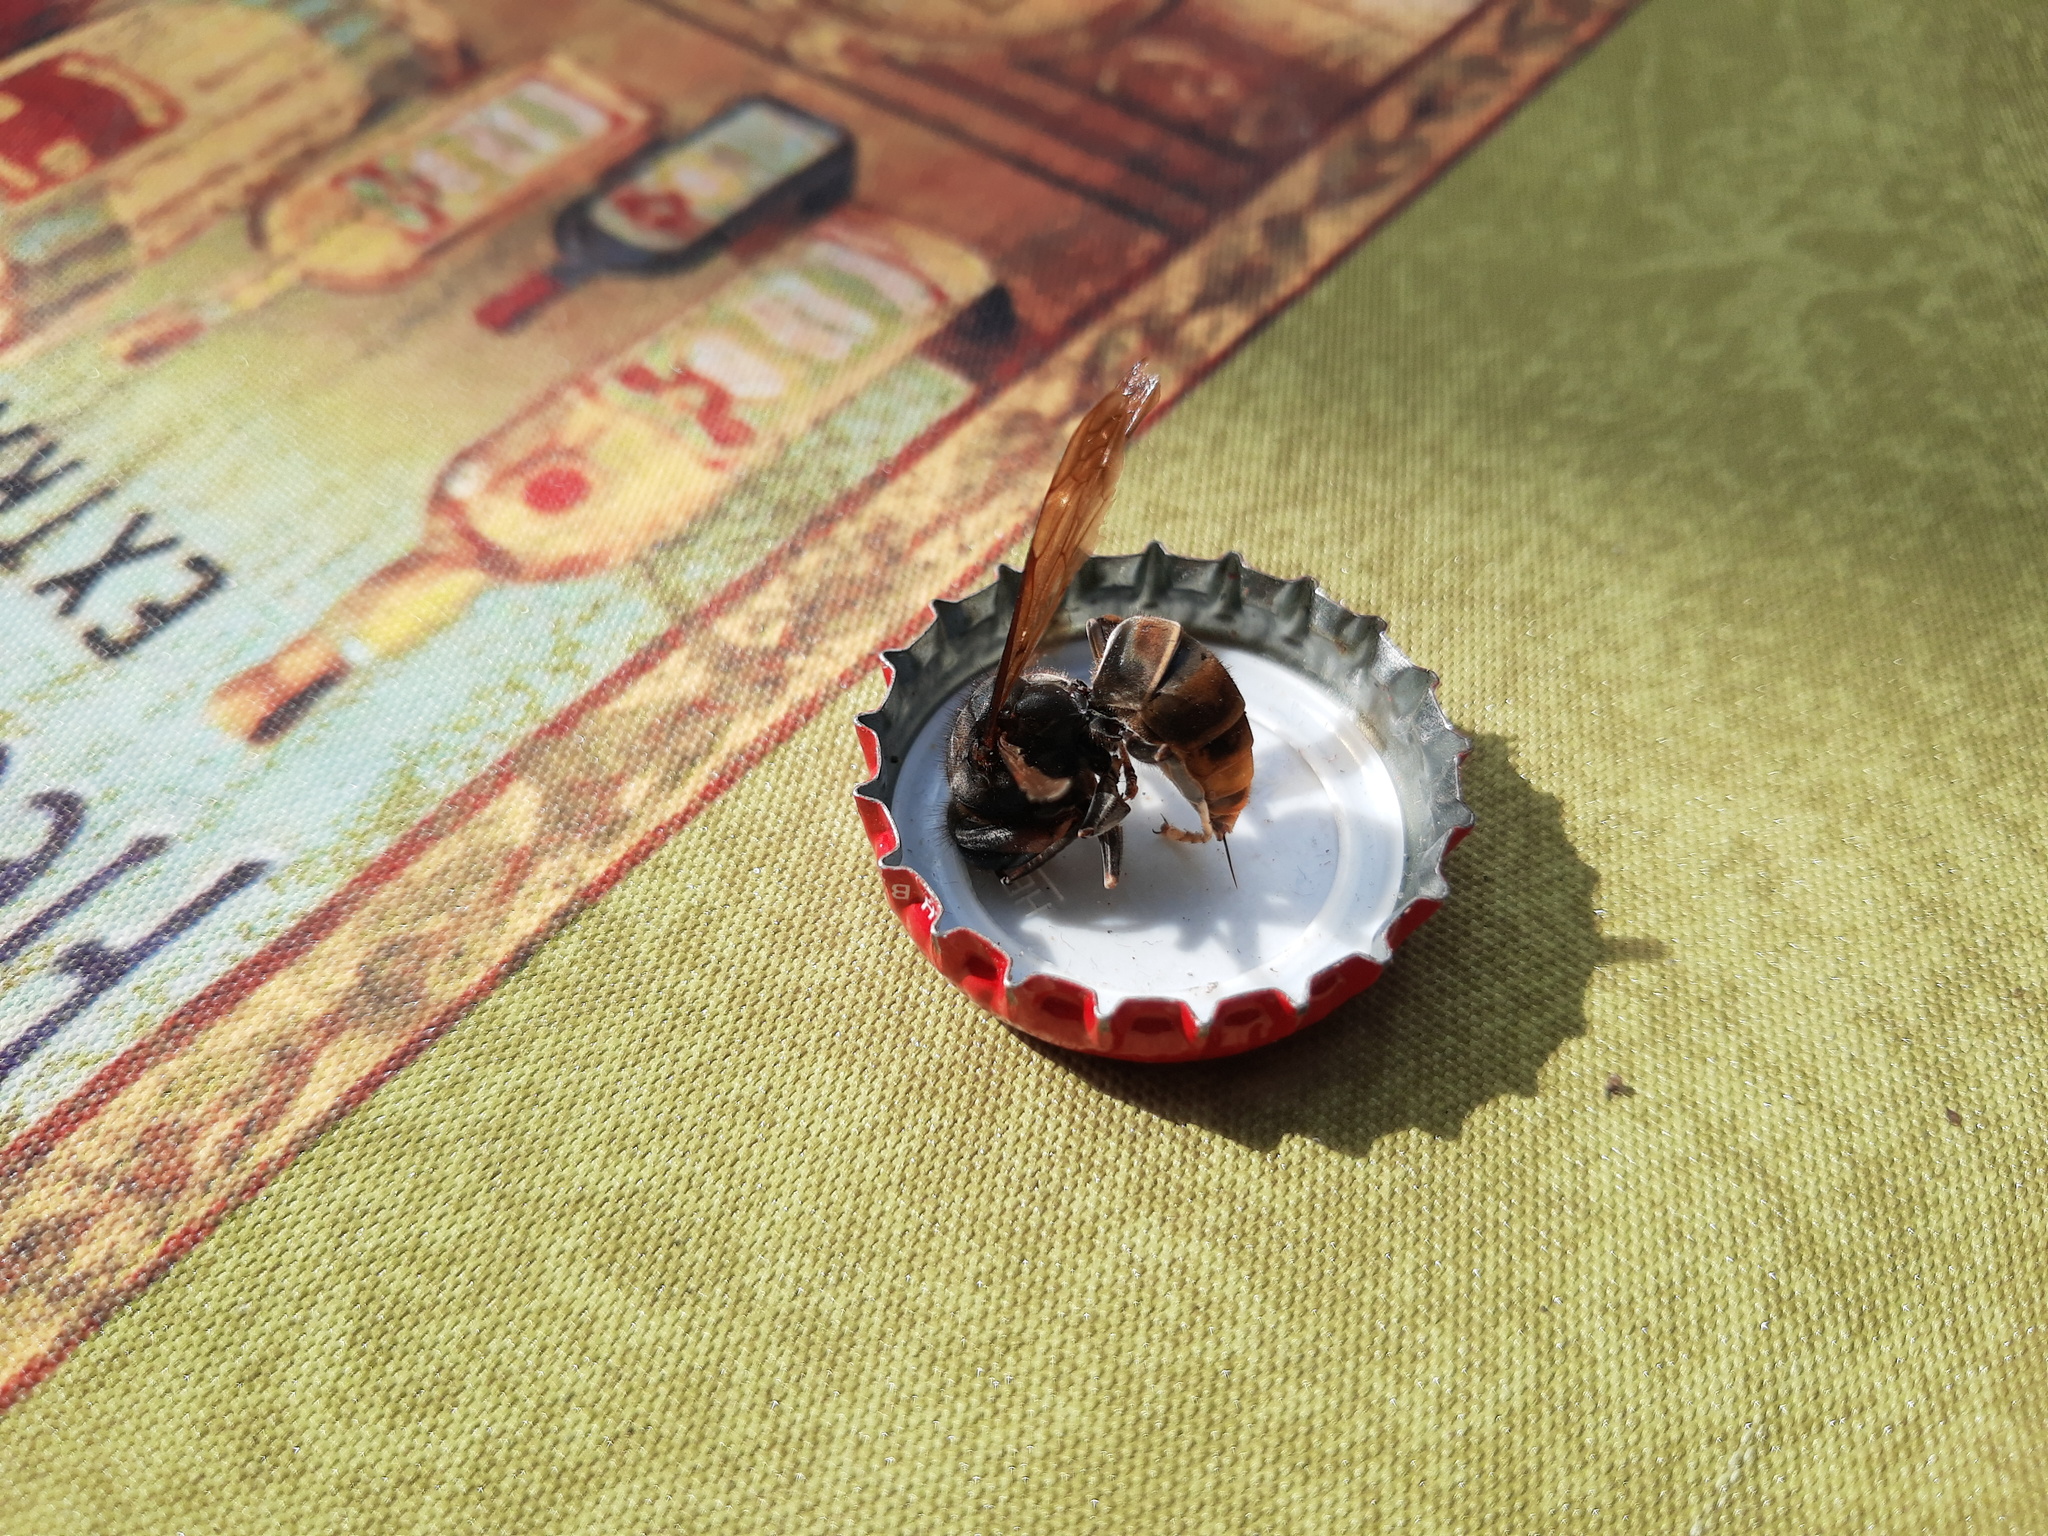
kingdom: Animalia
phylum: Arthropoda
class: Insecta
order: Hymenoptera
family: Vespidae
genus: Vespa
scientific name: Vespa velutina
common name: Asian hornet
